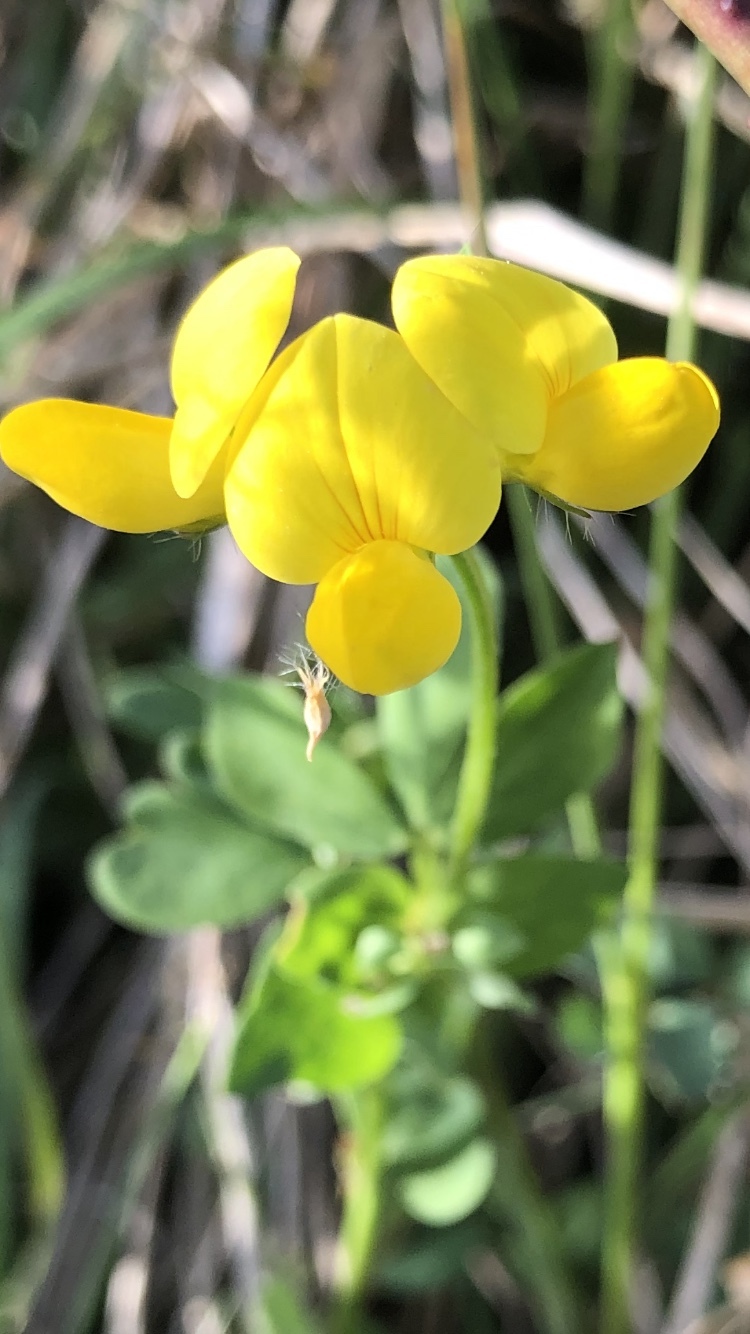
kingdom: Plantae
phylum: Tracheophyta
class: Magnoliopsida
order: Fabales
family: Fabaceae
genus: Lotus
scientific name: Lotus corniculatus
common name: Common bird's-foot-trefoil
